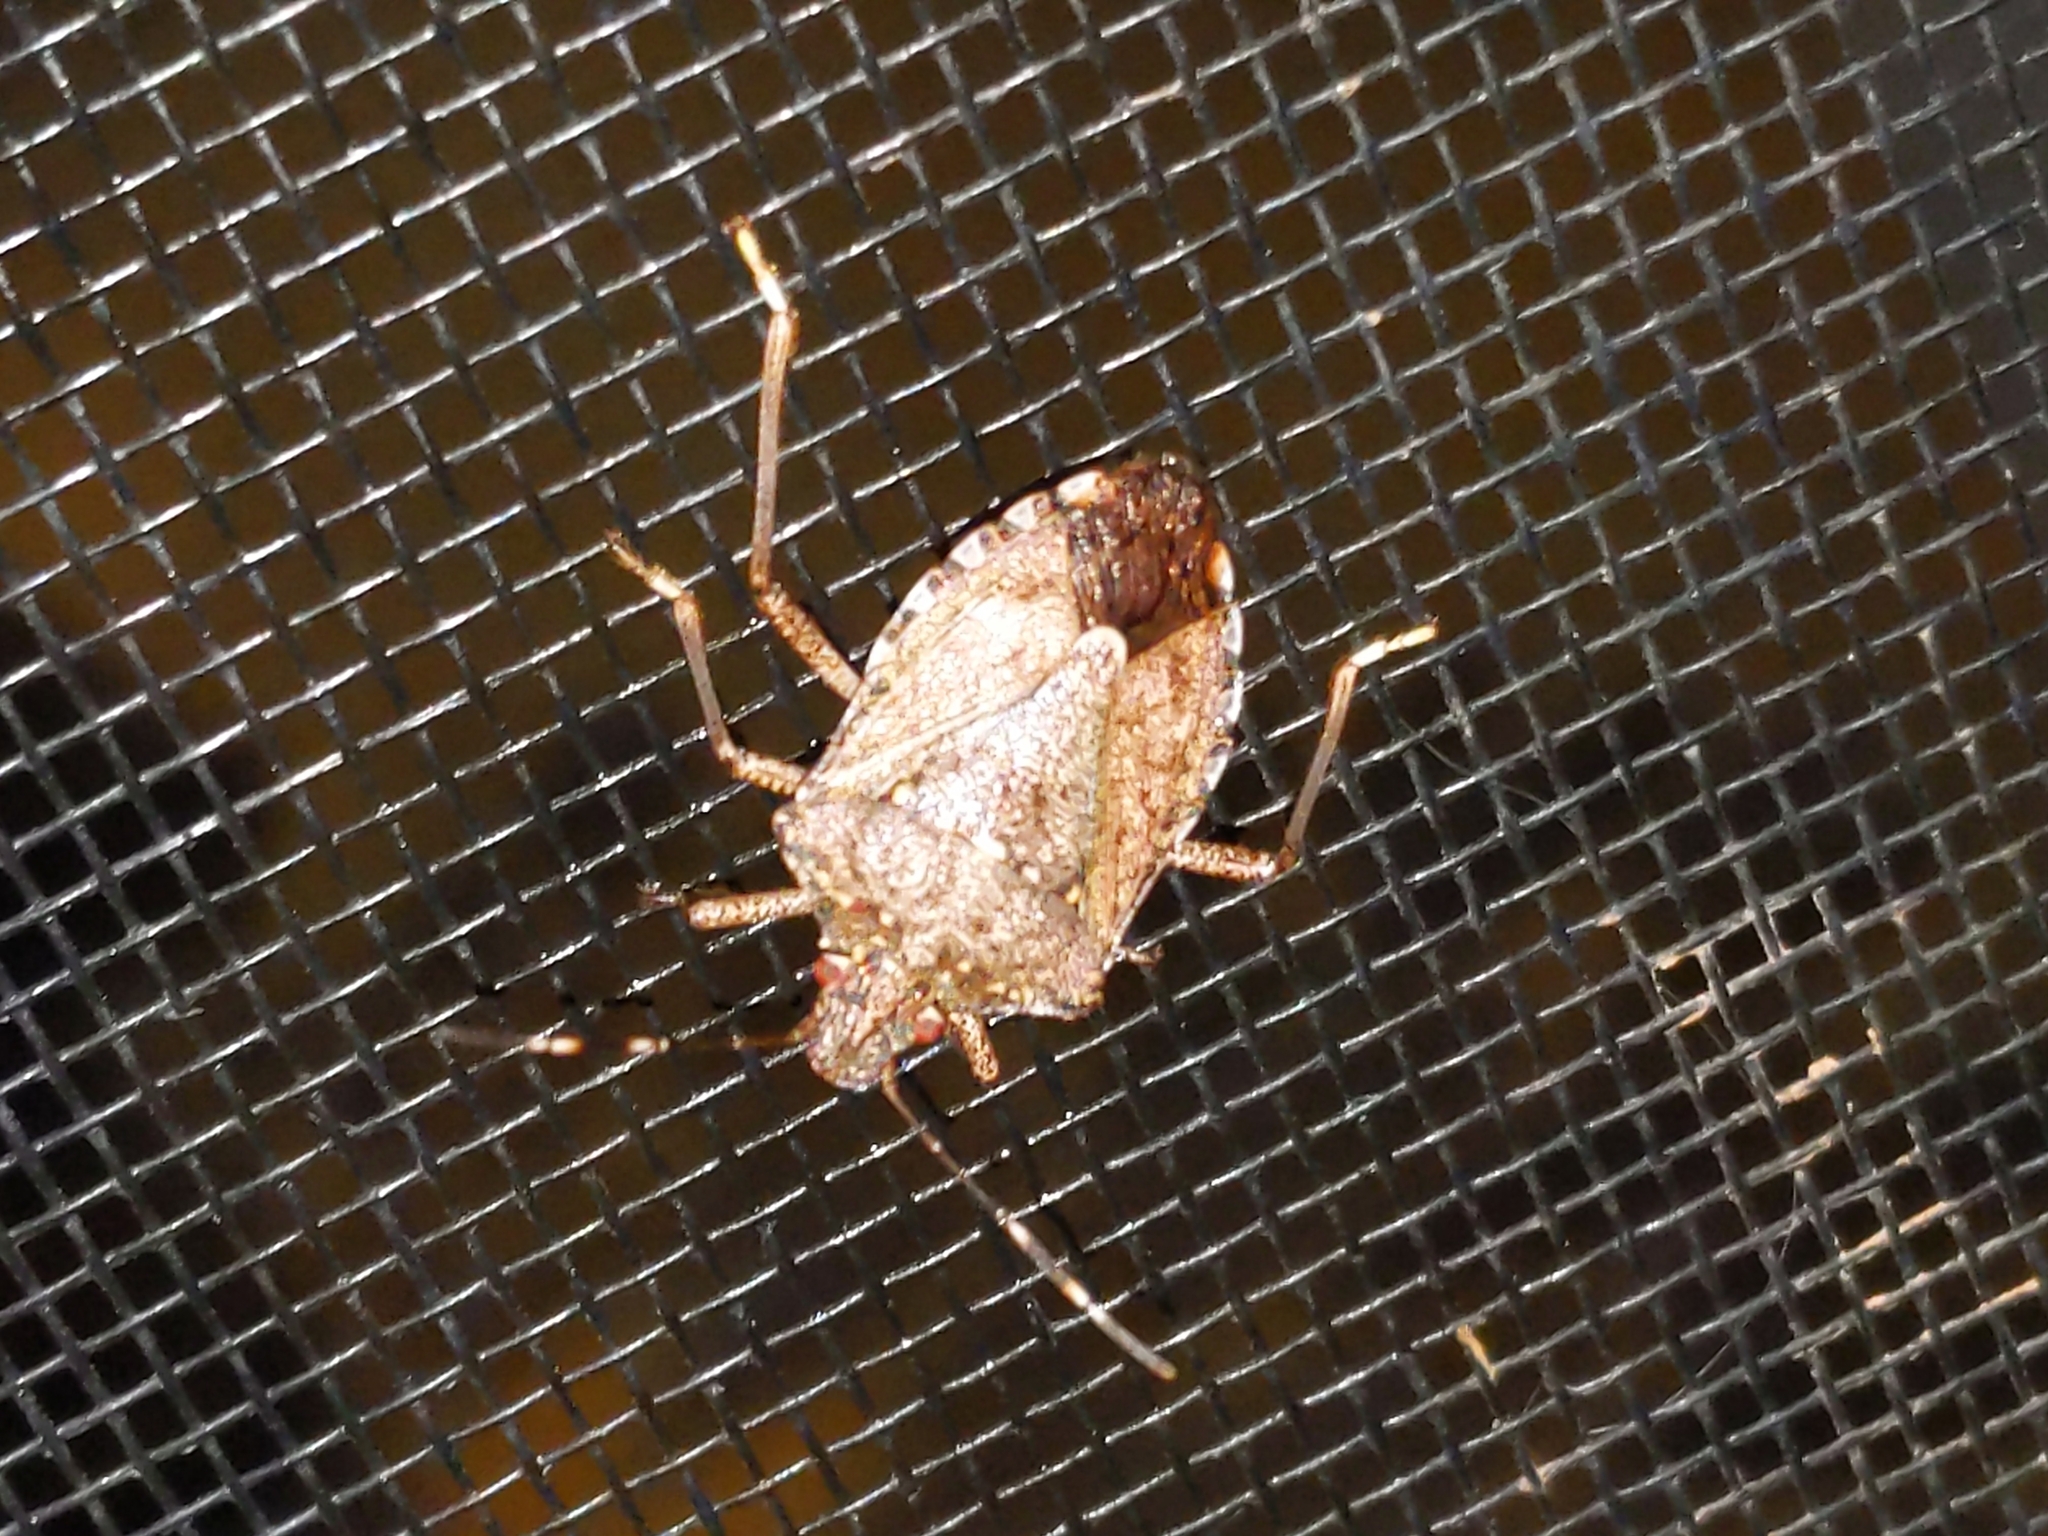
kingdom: Animalia
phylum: Arthropoda
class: Insecta
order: Hemiptera
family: Pentatomidae
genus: Halyomorpha
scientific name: Halyomorpha halys
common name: Brown marmorated stink bug
